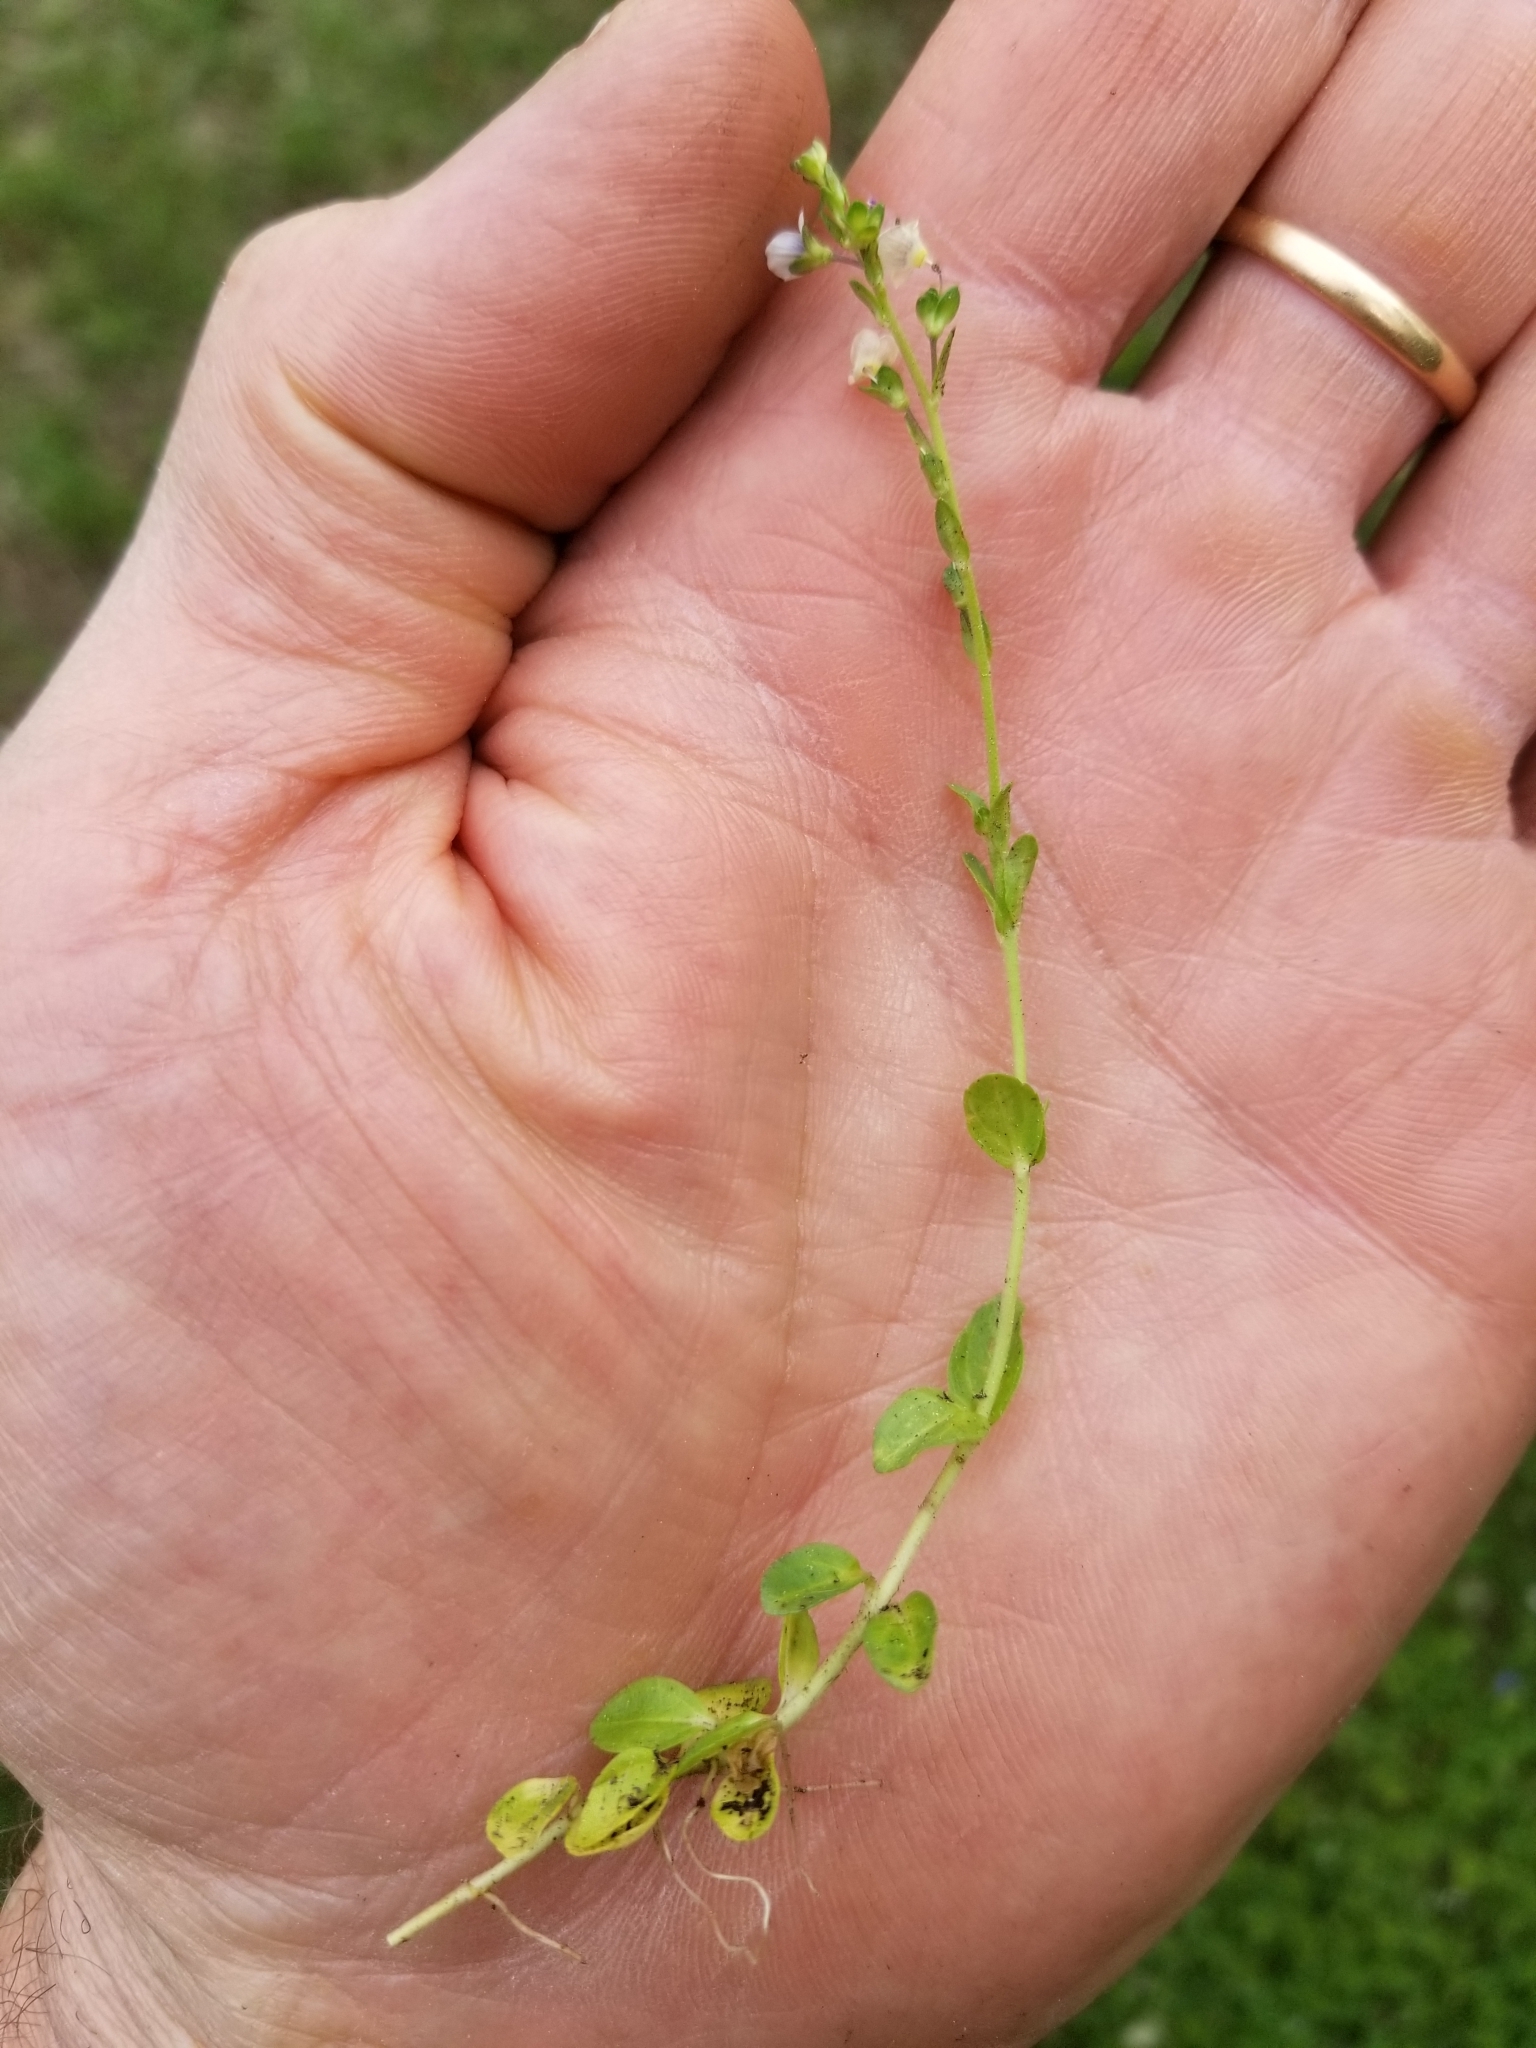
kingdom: Plantae
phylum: Tracheophyta
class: Magnoliopsida
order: Lamiales
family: Plantaginaceae
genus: Veronica
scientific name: Veronica serpyllifolia
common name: Thyme-leaved speedwell
